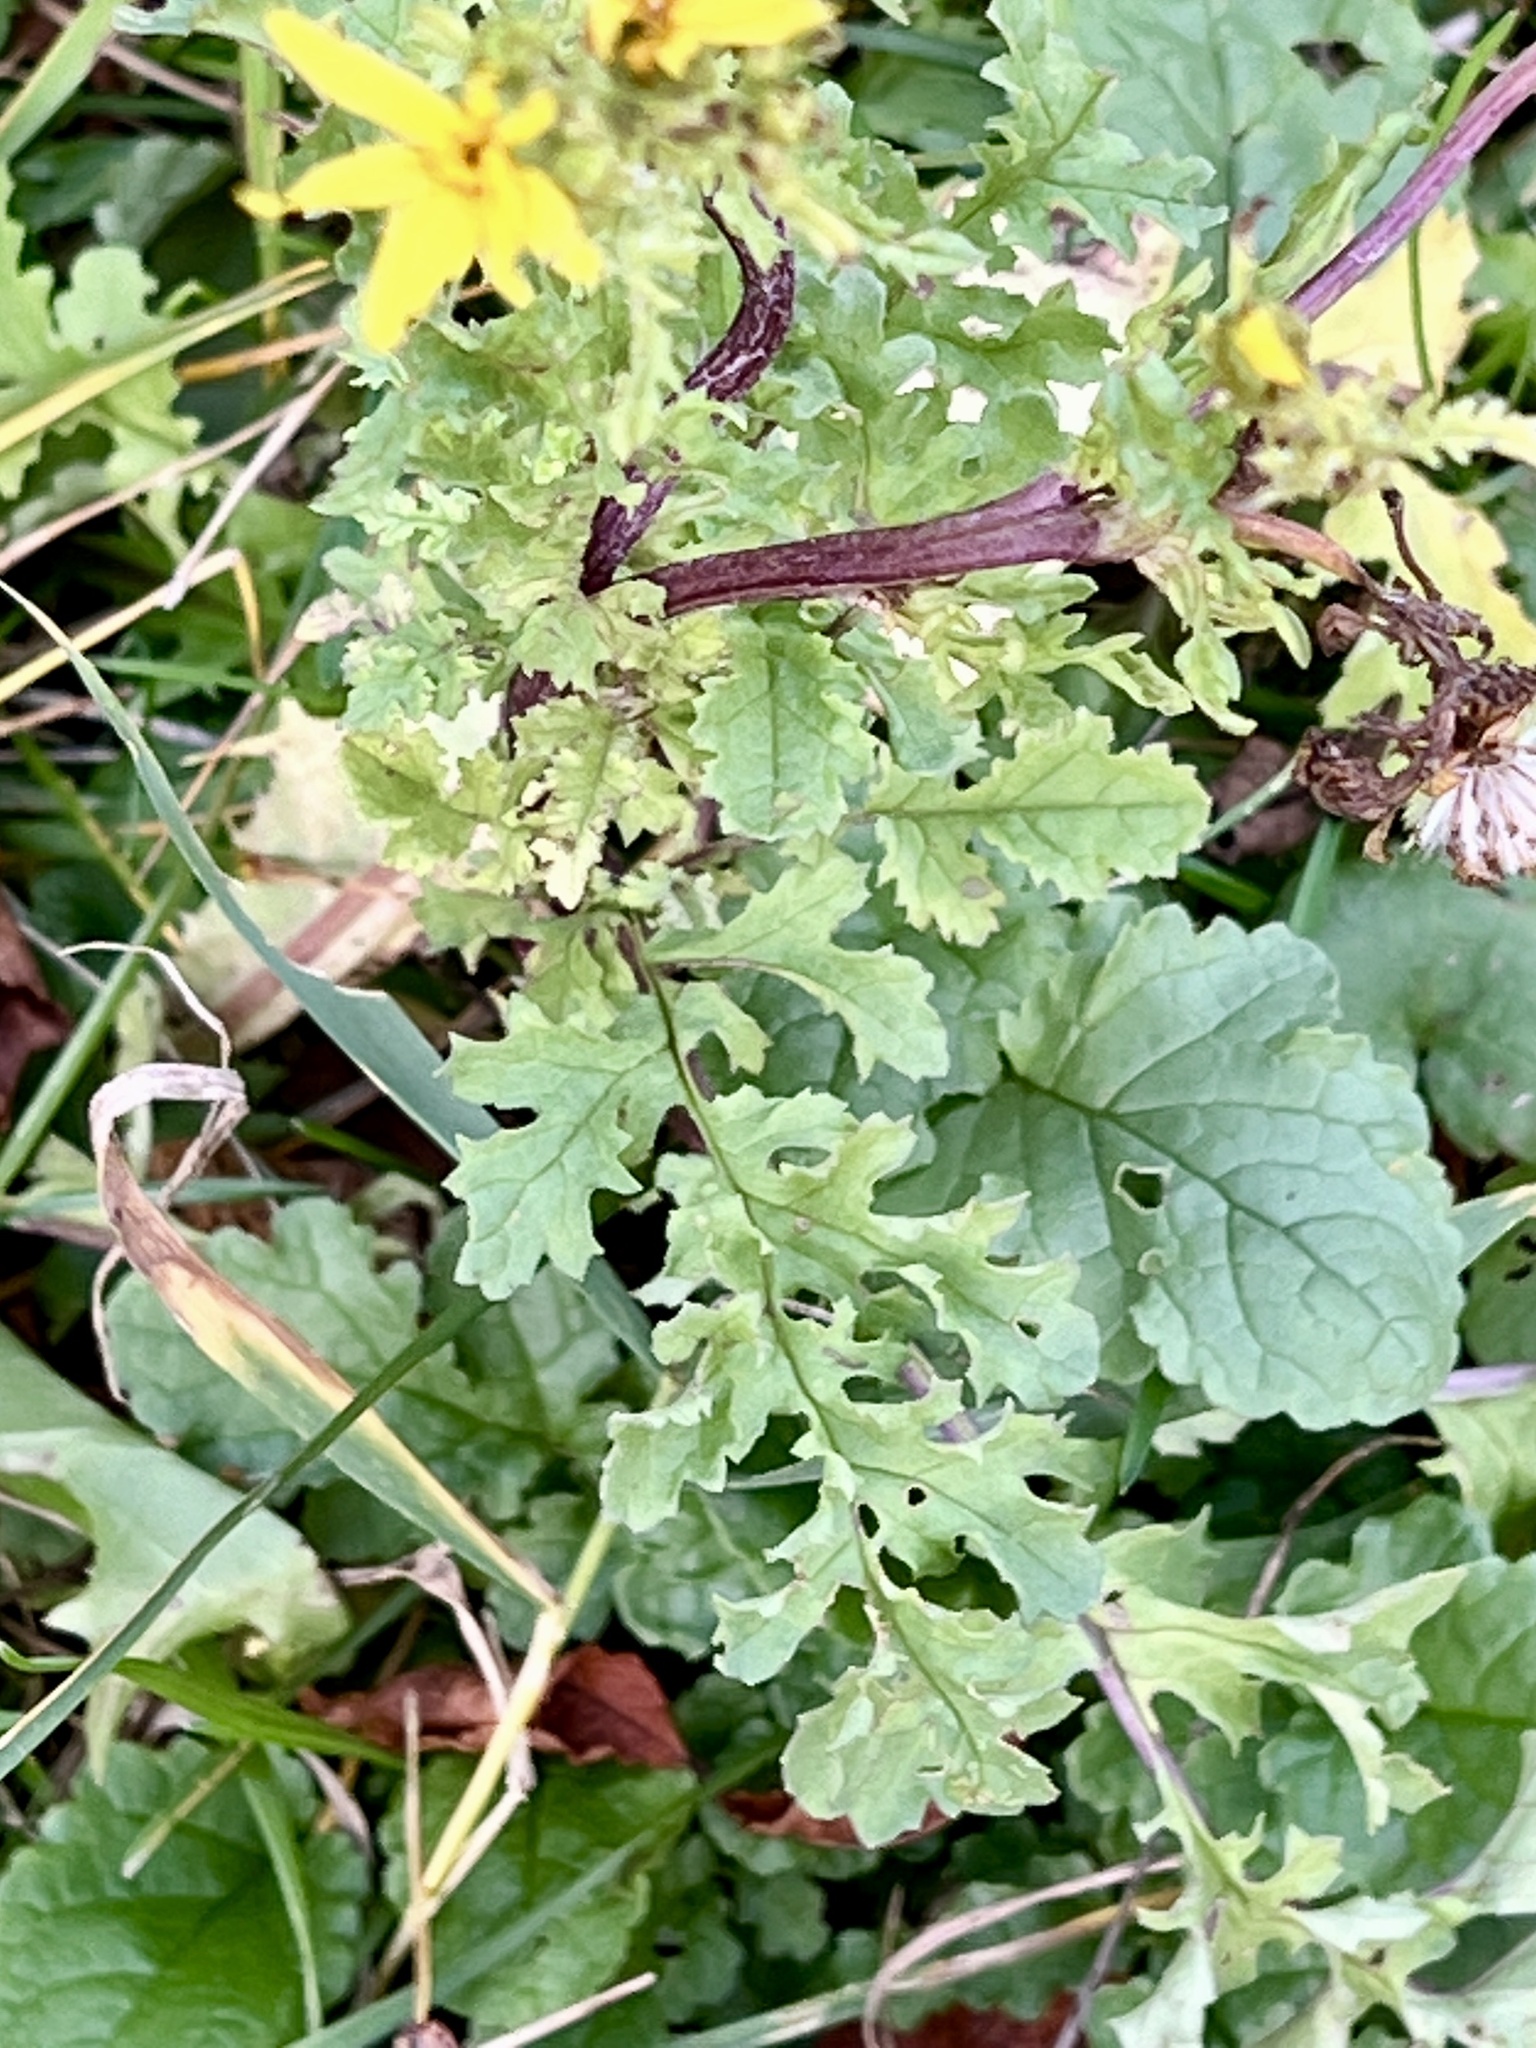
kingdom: Plantae
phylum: Tracheophyta
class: Magnoliopsida
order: Asterales
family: Asteraceae
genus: Jacobaea
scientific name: Jacobaea vulgaris
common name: Stinking willie
